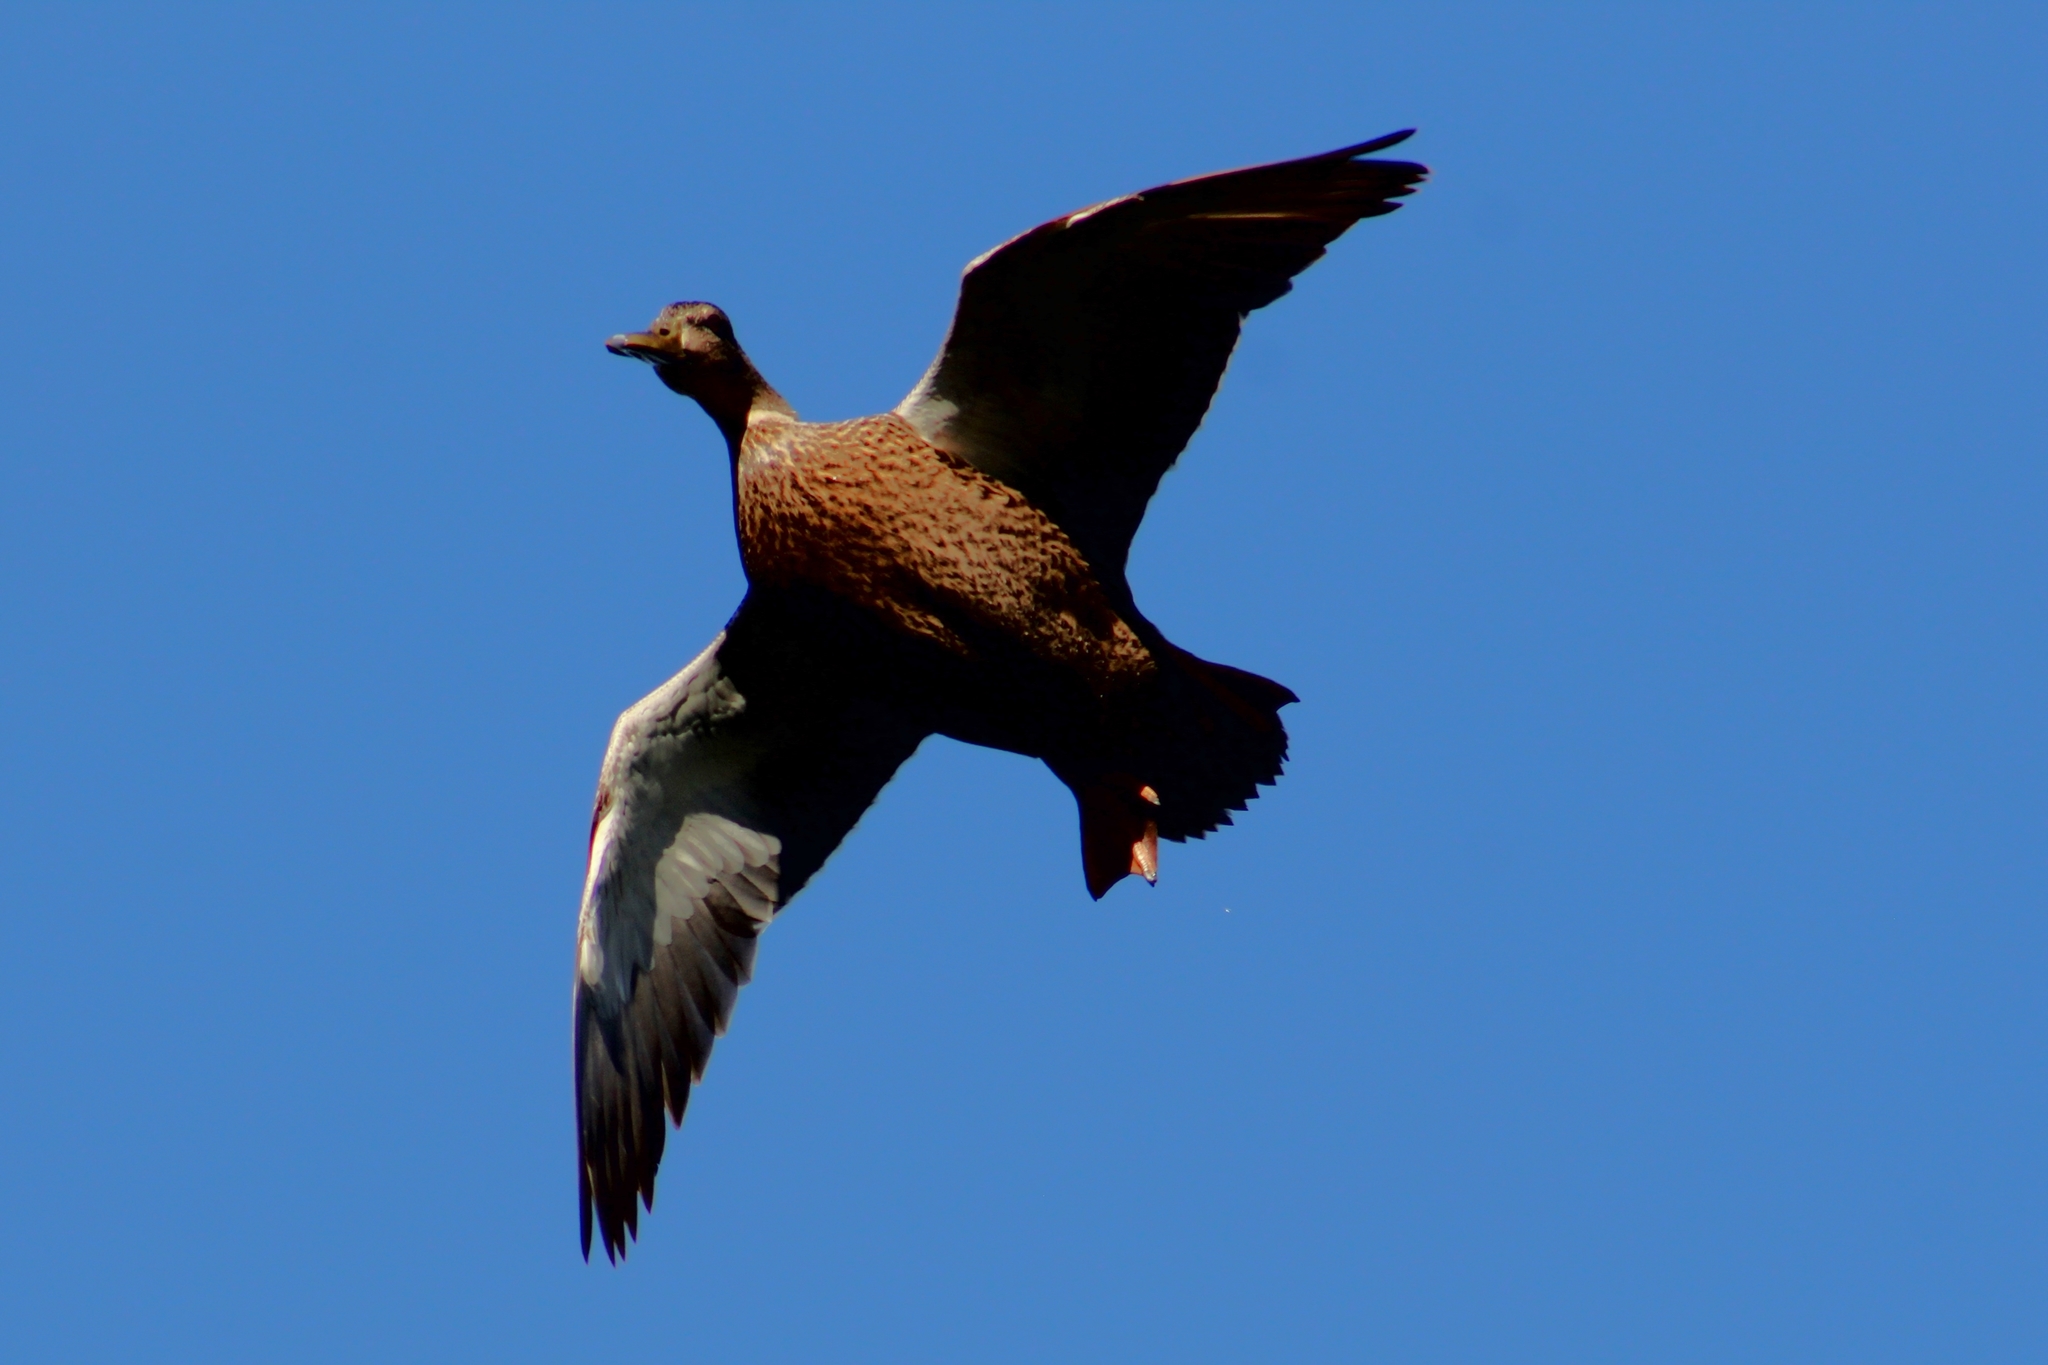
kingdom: Animalia
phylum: Chordata
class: Aves
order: Anseriformes
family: Anatidae
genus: Anas
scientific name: Anas diazi
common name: Mexican duck
